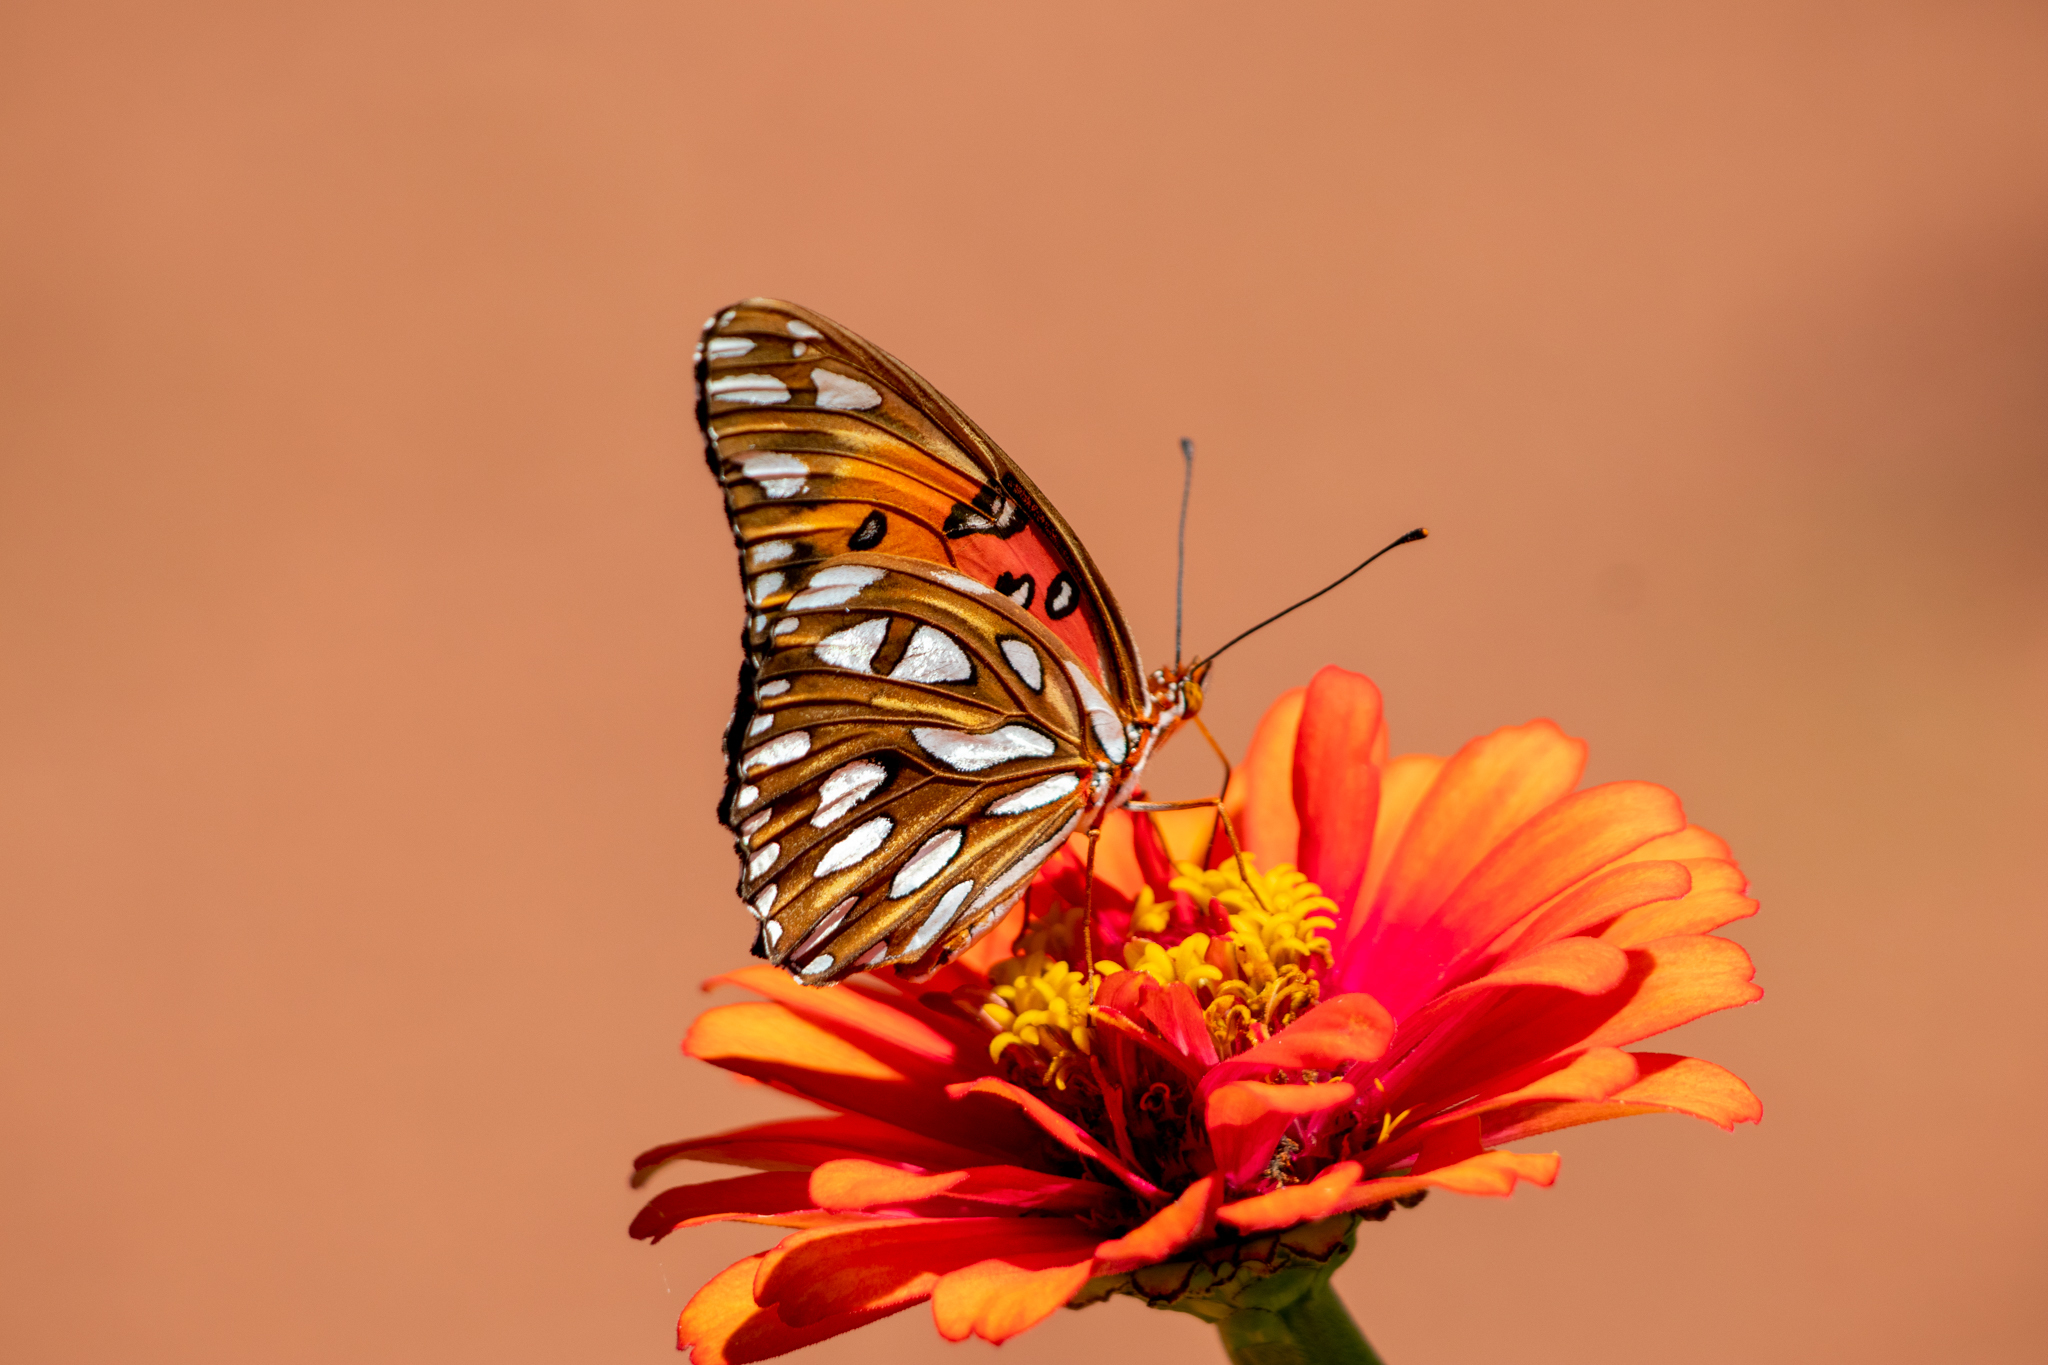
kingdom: Animalia
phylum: Arthropoda
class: Insecta
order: Lepidoptera
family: Nymphalidae
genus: Dione
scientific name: Dione vanillae
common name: Gulf fritillary
